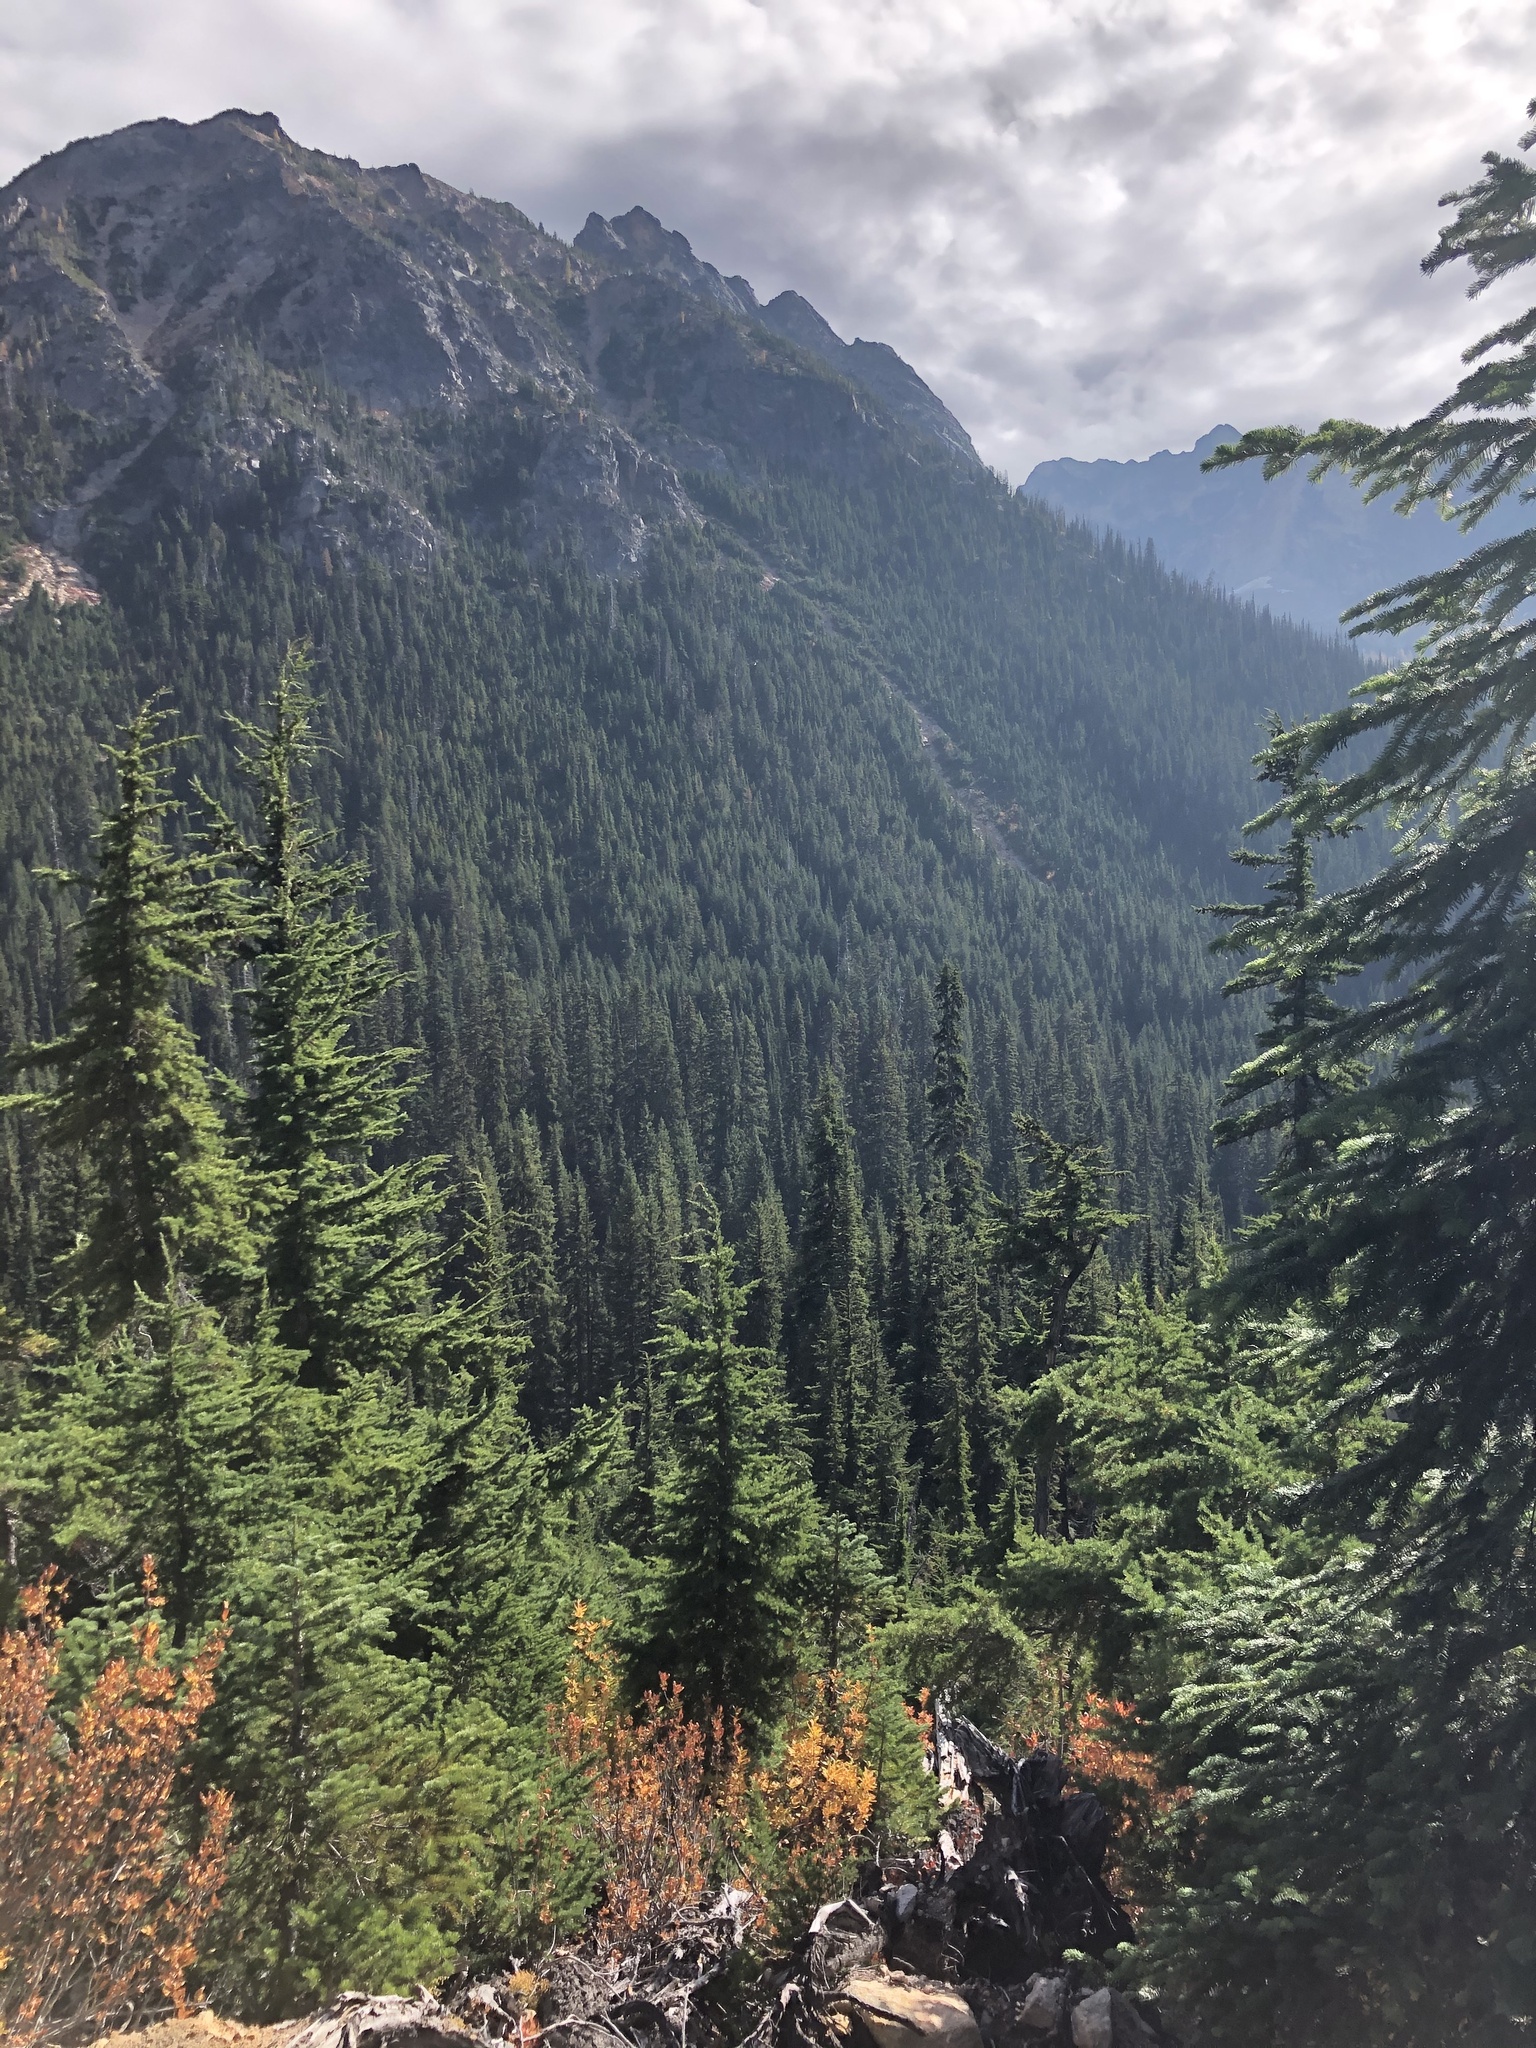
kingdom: Plantae
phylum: Tracheophyta
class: Pinopsida
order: Pinales
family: Pinaceae
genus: Tsuga
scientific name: Tsuga mertensiana
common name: Mountain hemlock
